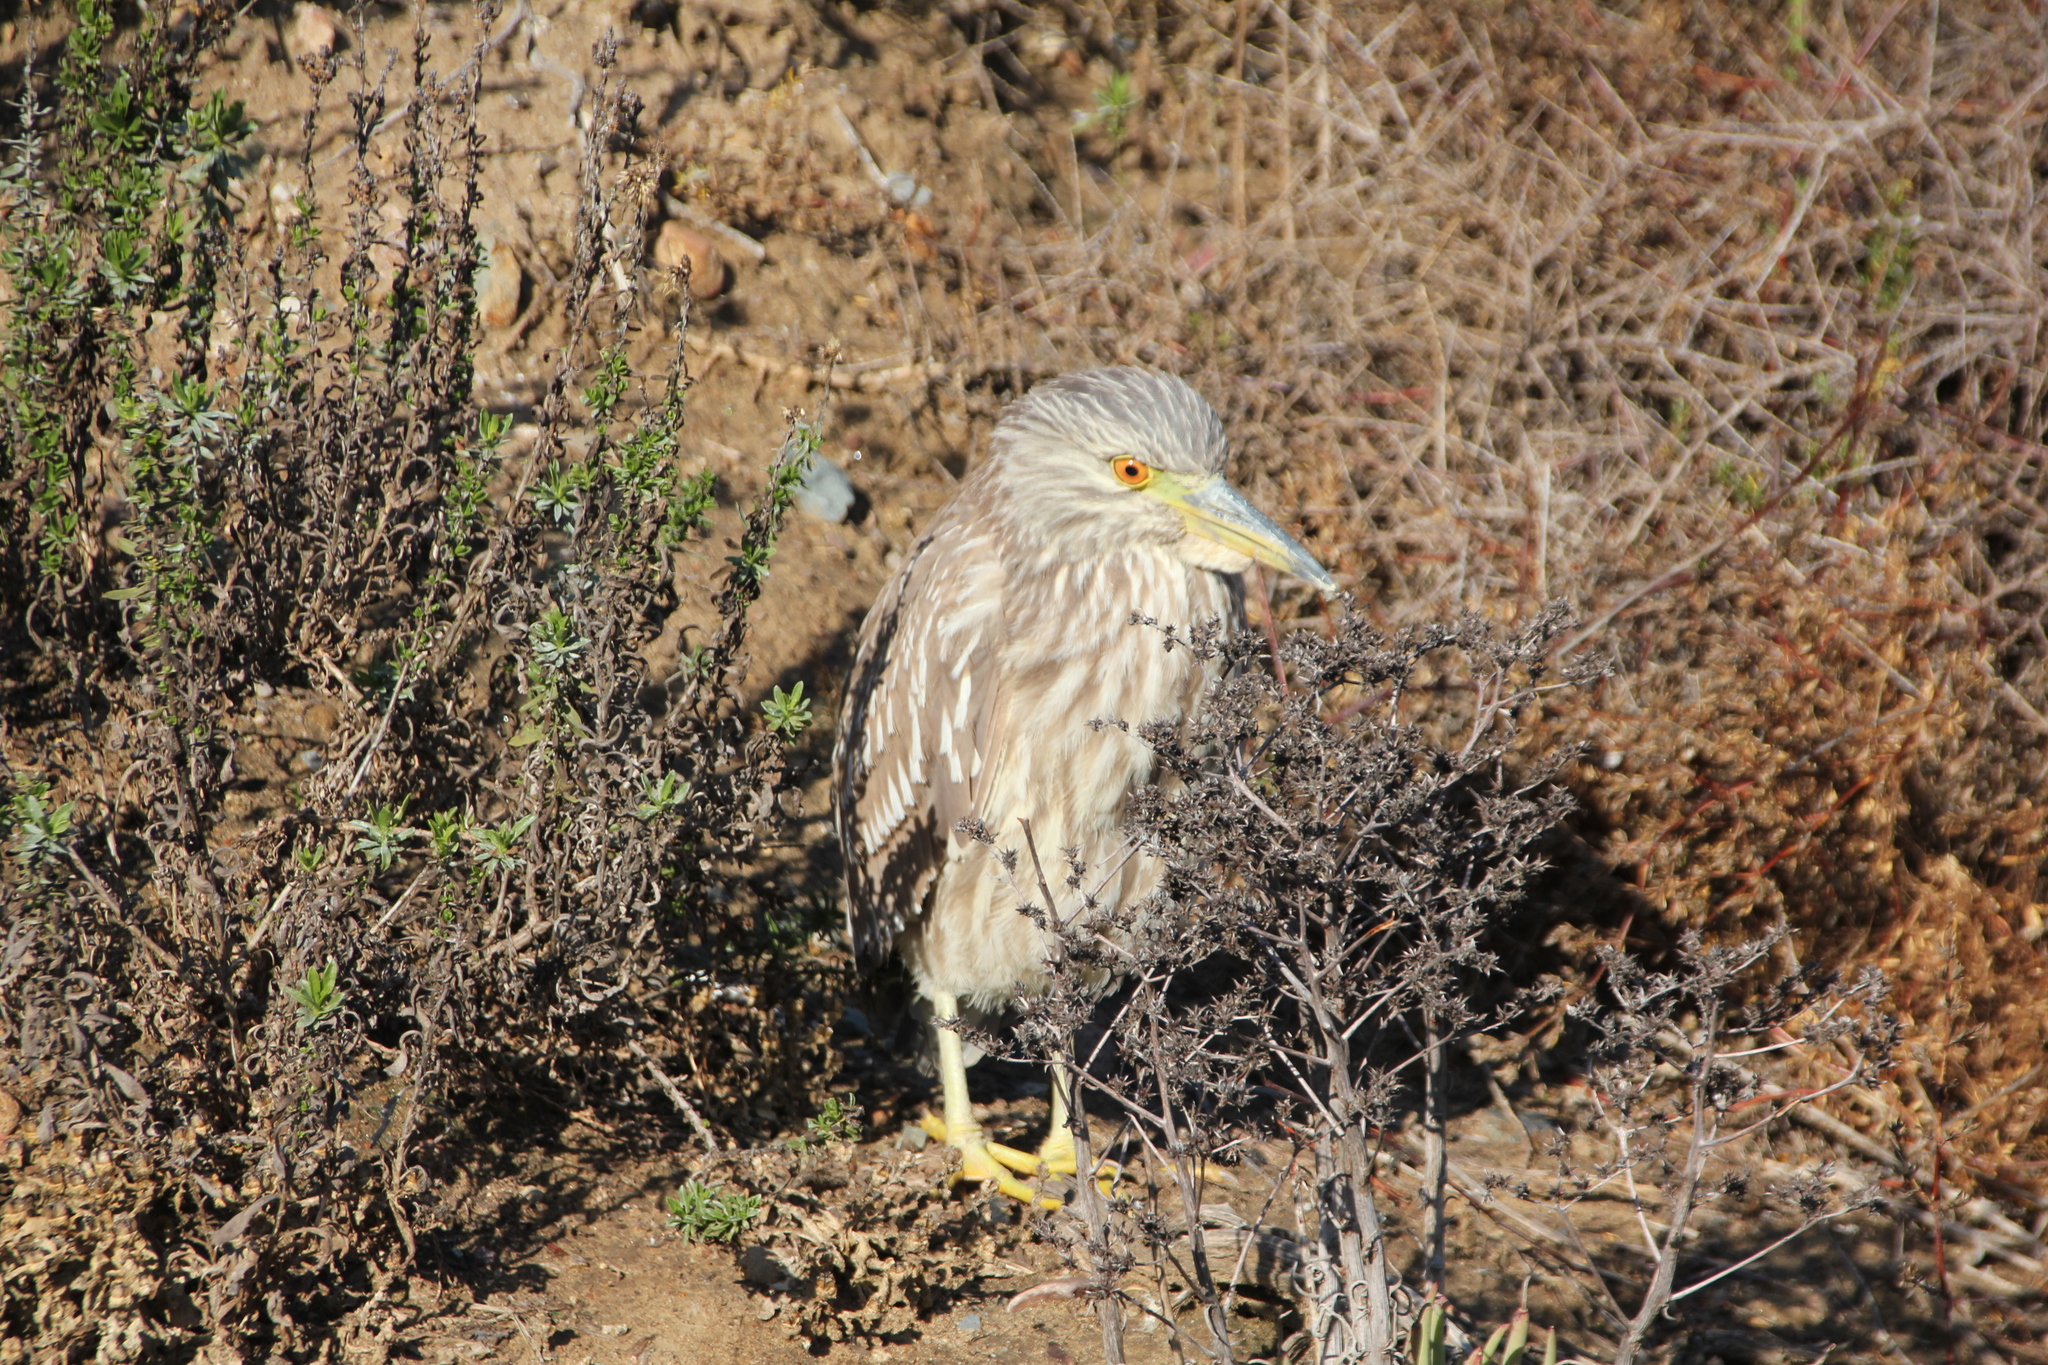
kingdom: Animalia
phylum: Chordata
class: Aves
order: Pelecaniformes
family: Ardeidae
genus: Nycticorax
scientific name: Nycticorax nycticorax
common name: Black-crowned night heron
